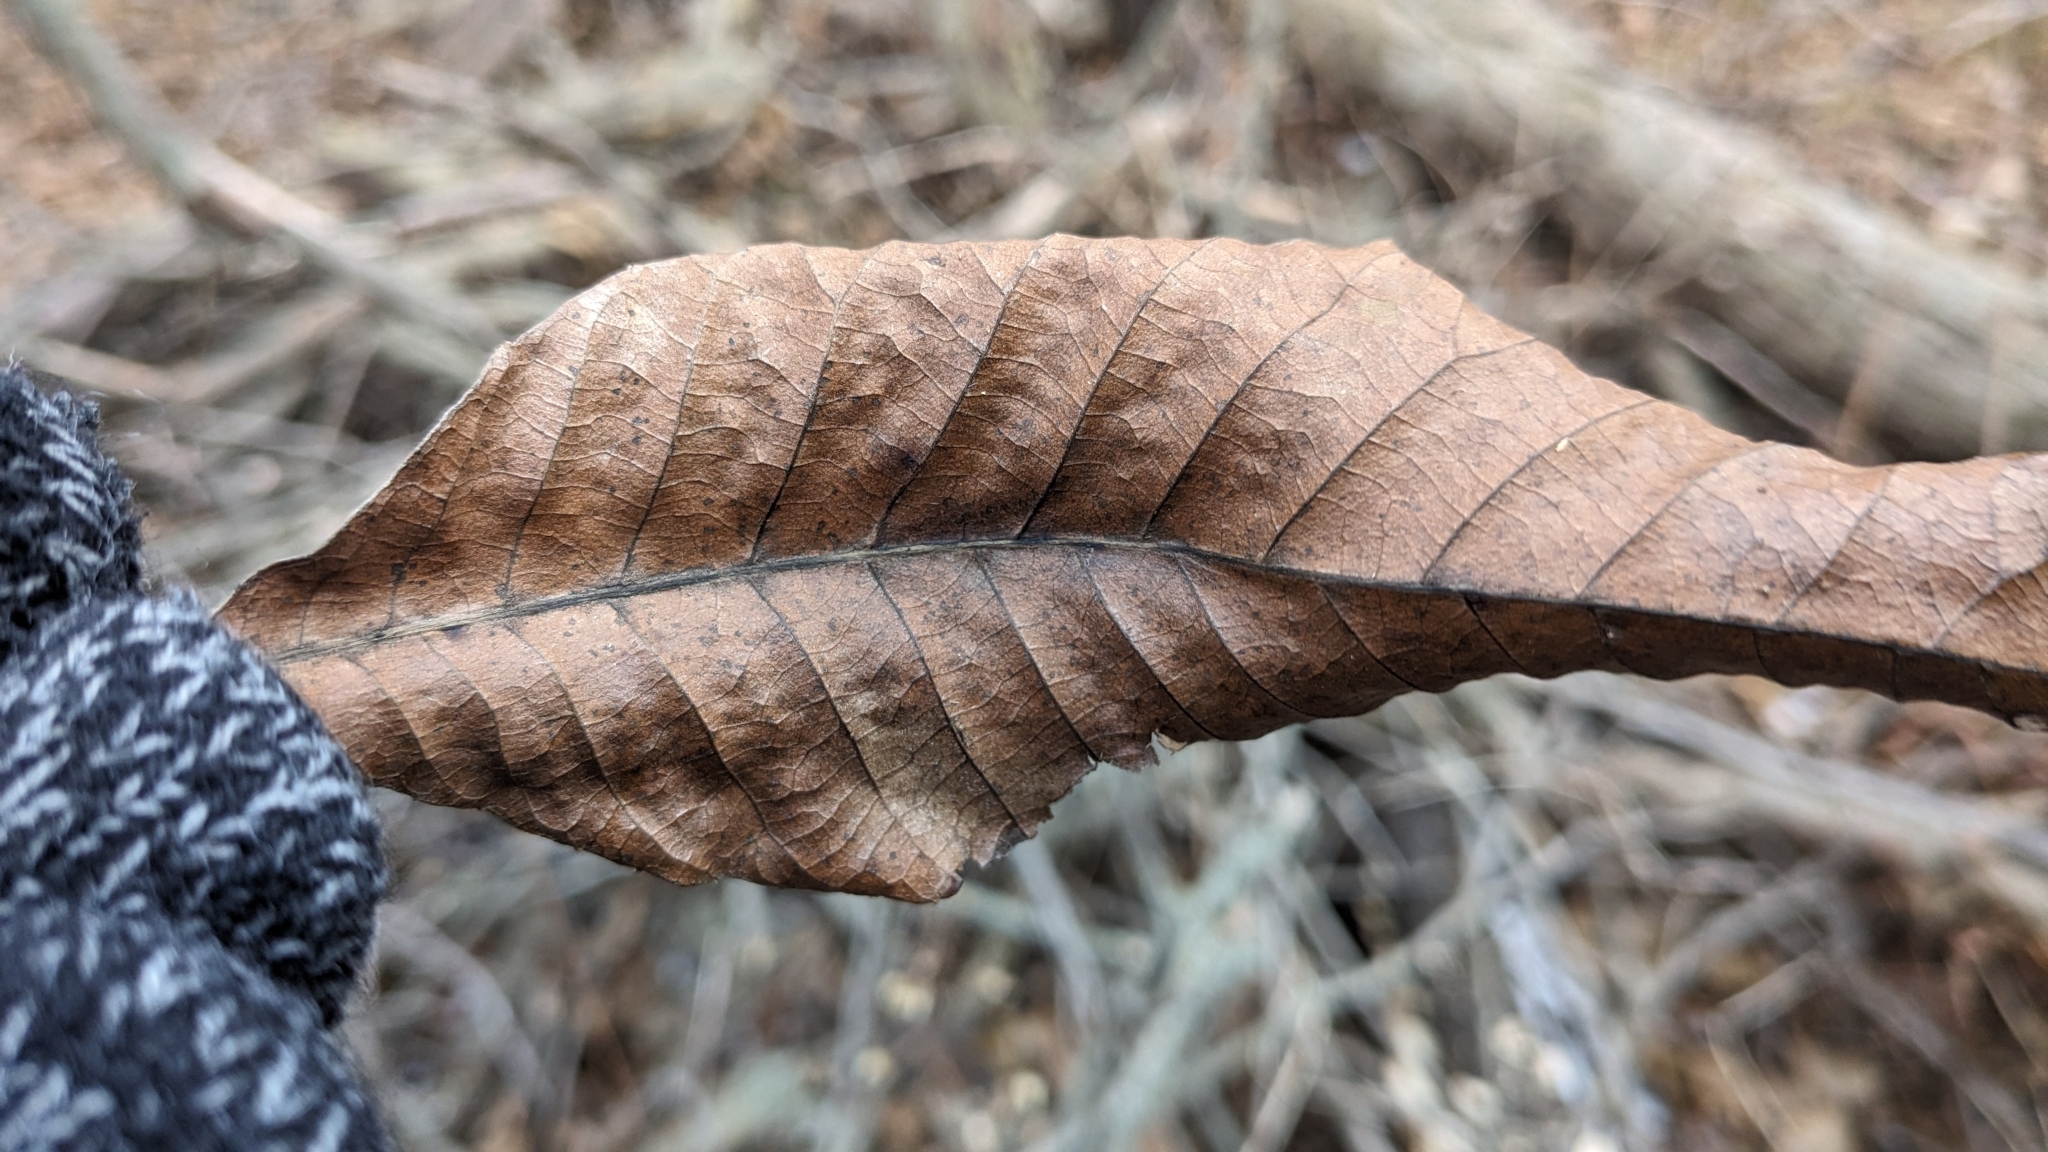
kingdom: Plantae
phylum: Tracheophyta
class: Magnoliopsida
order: Fagales
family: Juglandaceae
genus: Carya
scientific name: Carya ovata
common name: Shagbark hickory
